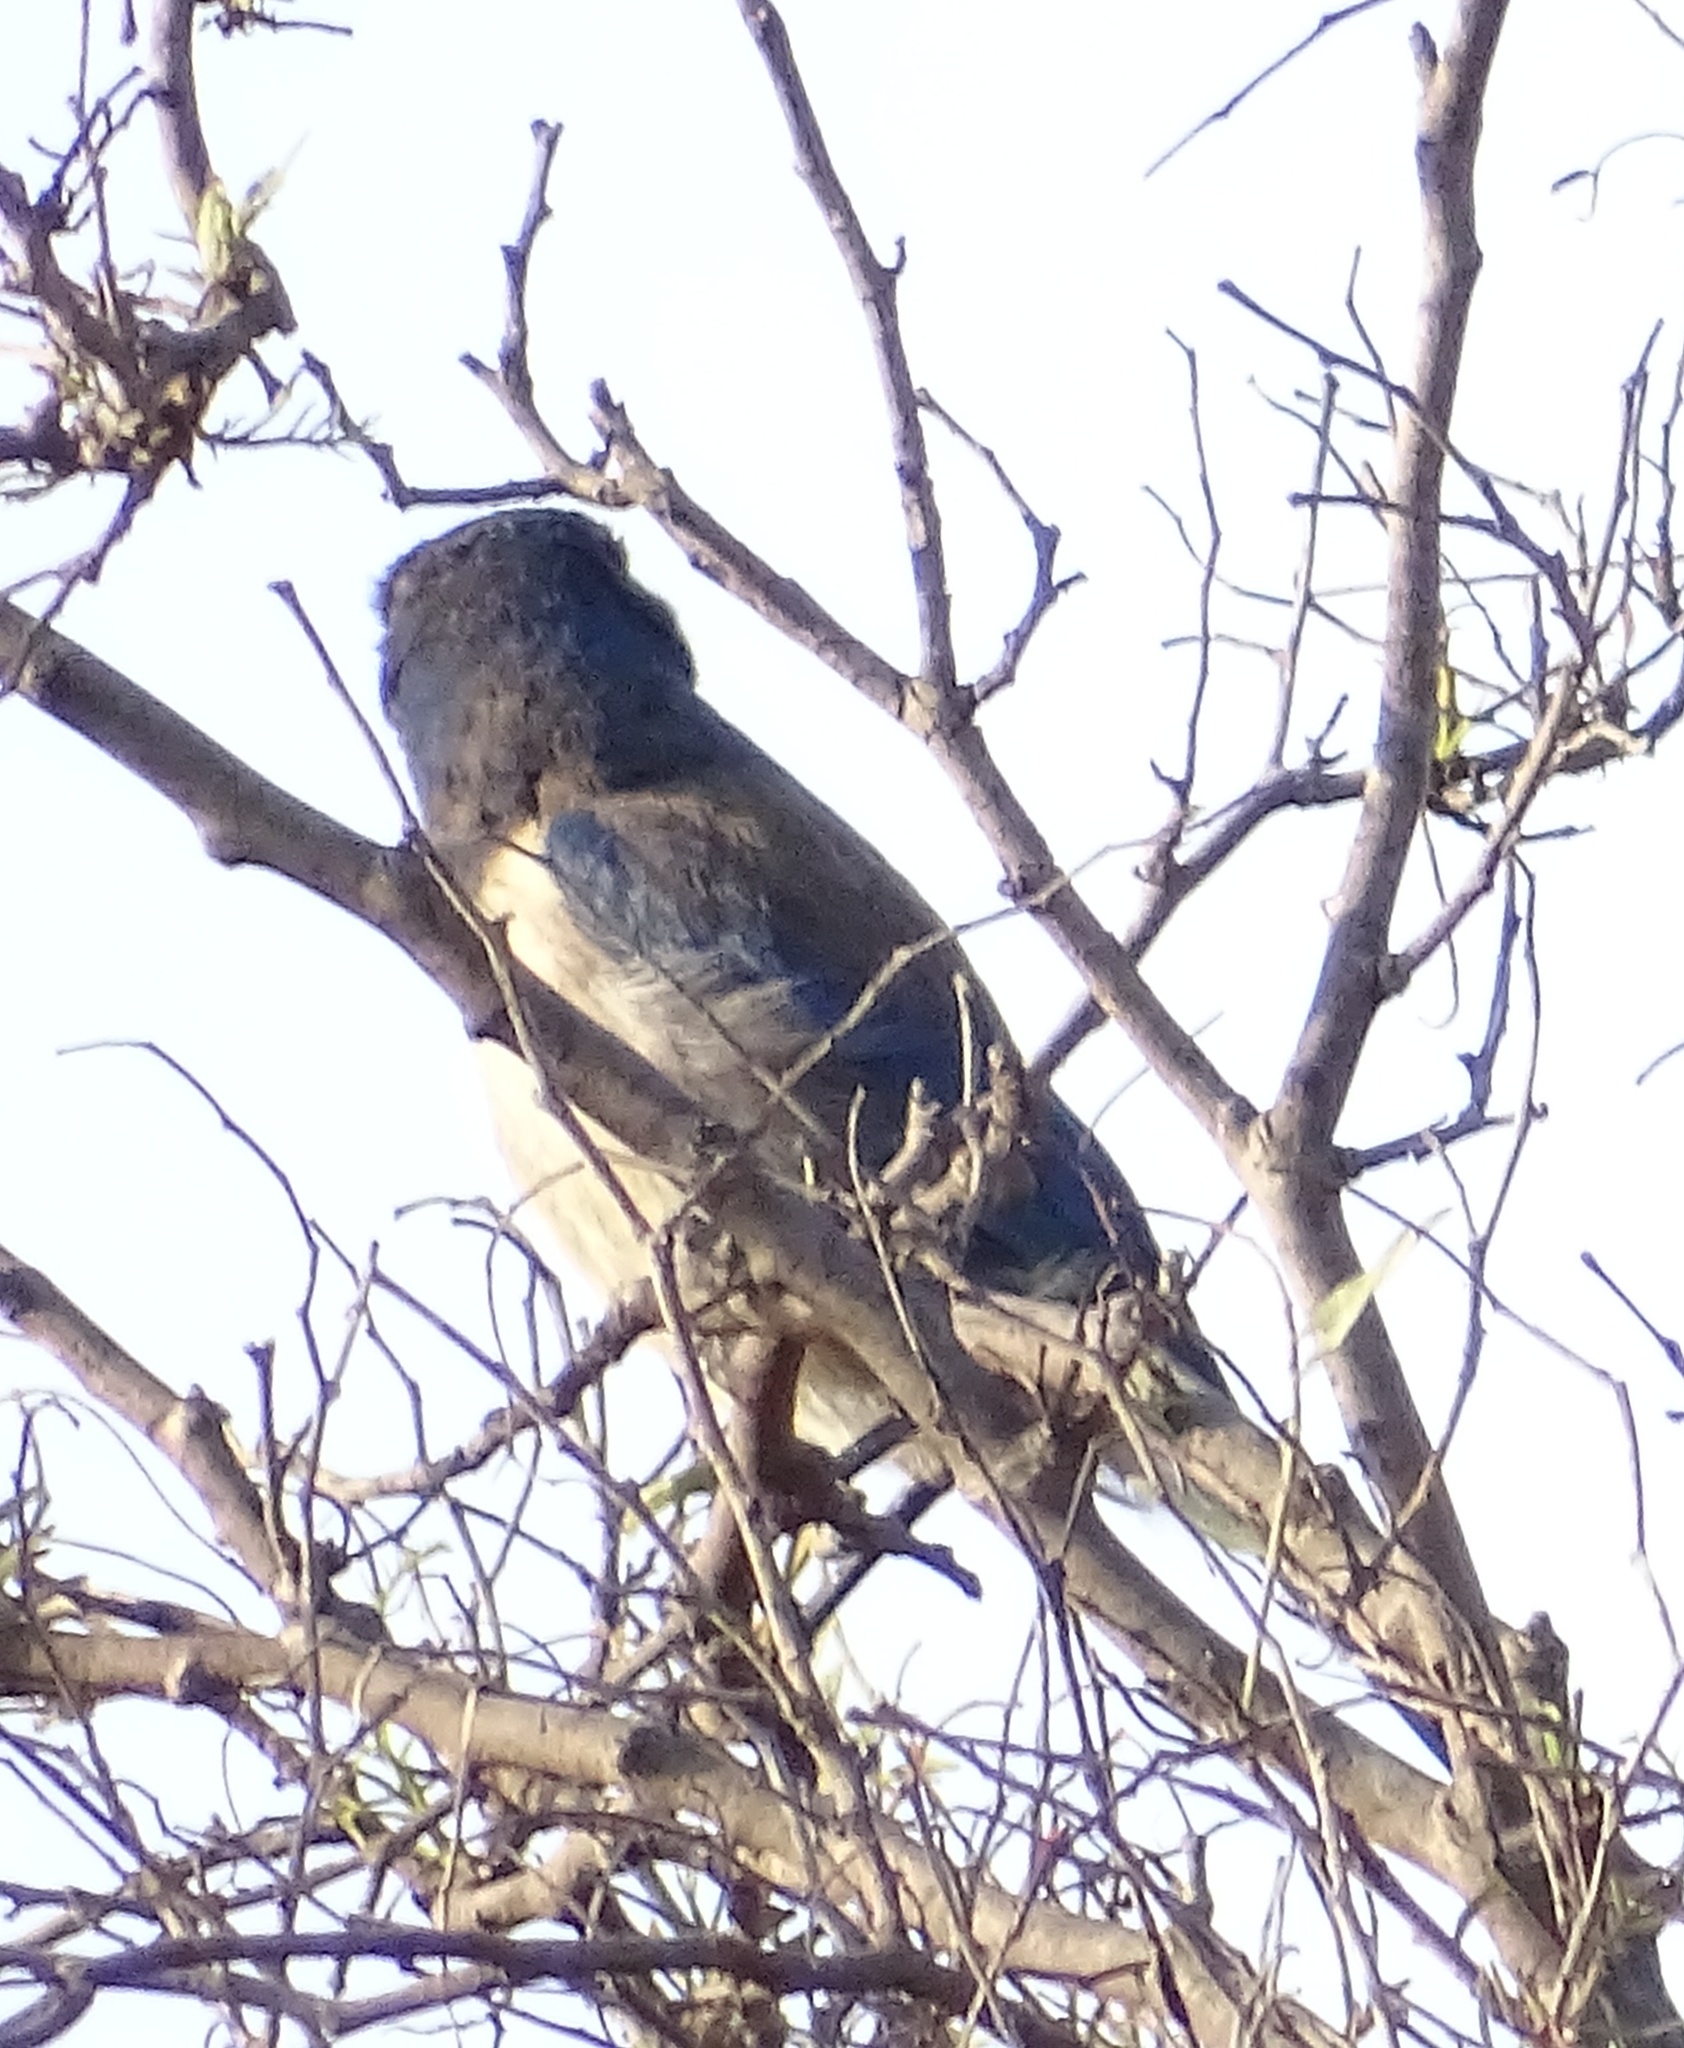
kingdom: Animalia
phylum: Chordata
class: Aves
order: Passeriformes
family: Corvidae
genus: Aphelocoma
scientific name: Aphelocoma californica
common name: California scrub-jay
